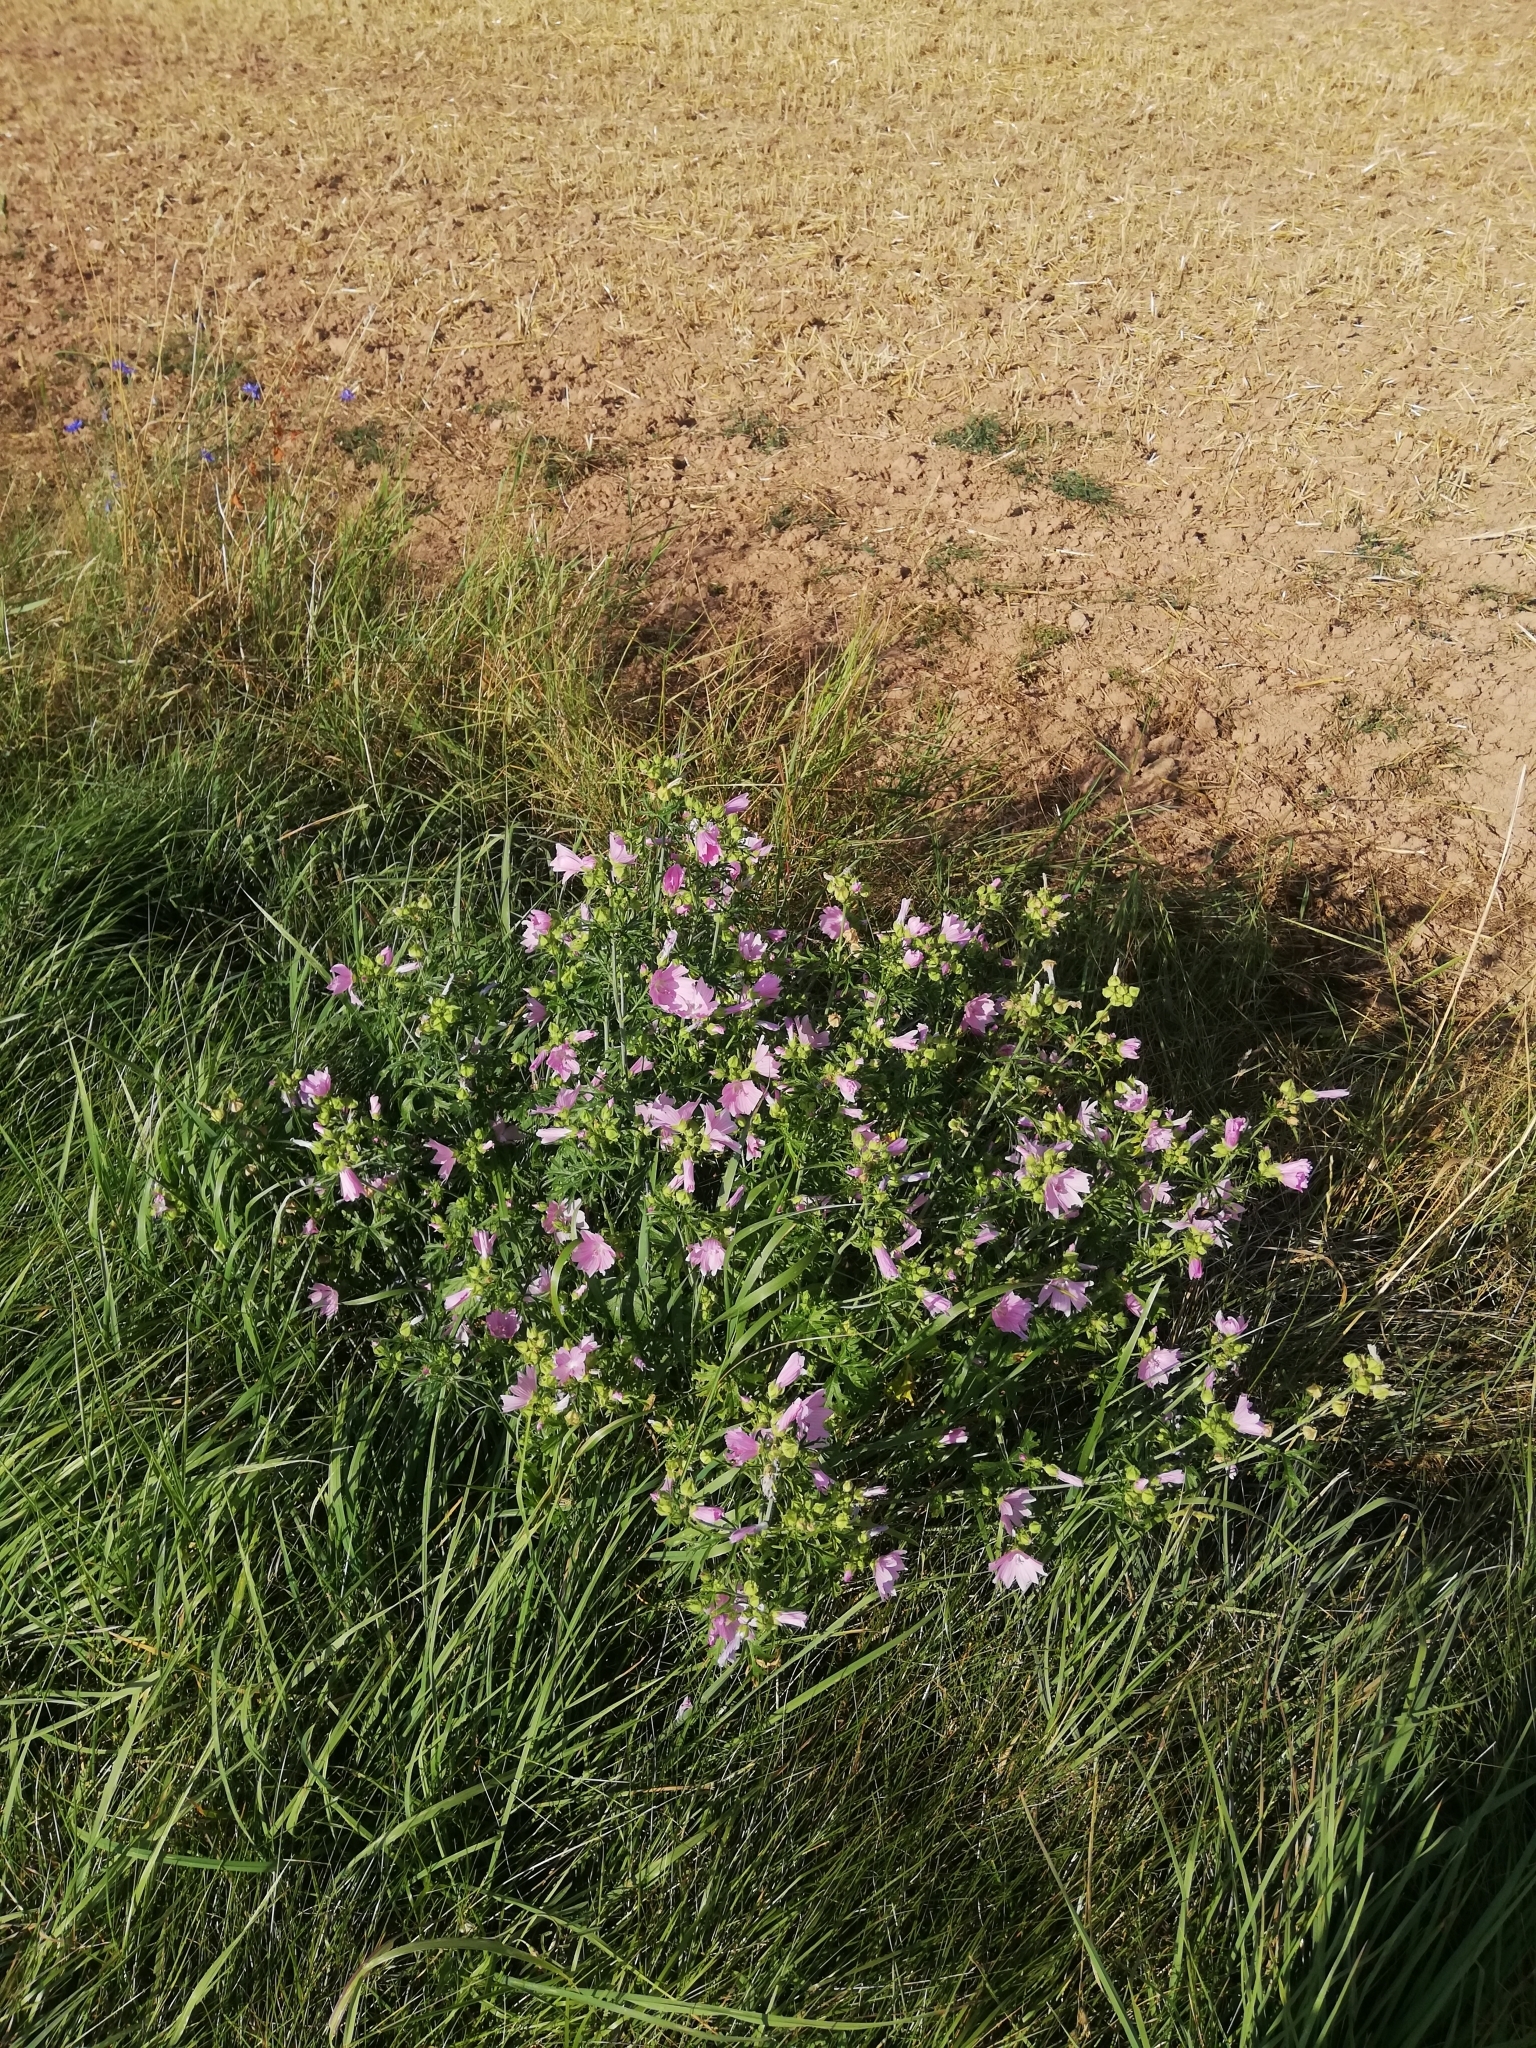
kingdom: Plantae
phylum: Tracheophyta
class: Magnoliopsida
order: Malvales
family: Malvaceae
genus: Malva
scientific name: Malva moschata
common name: Musk mallow
